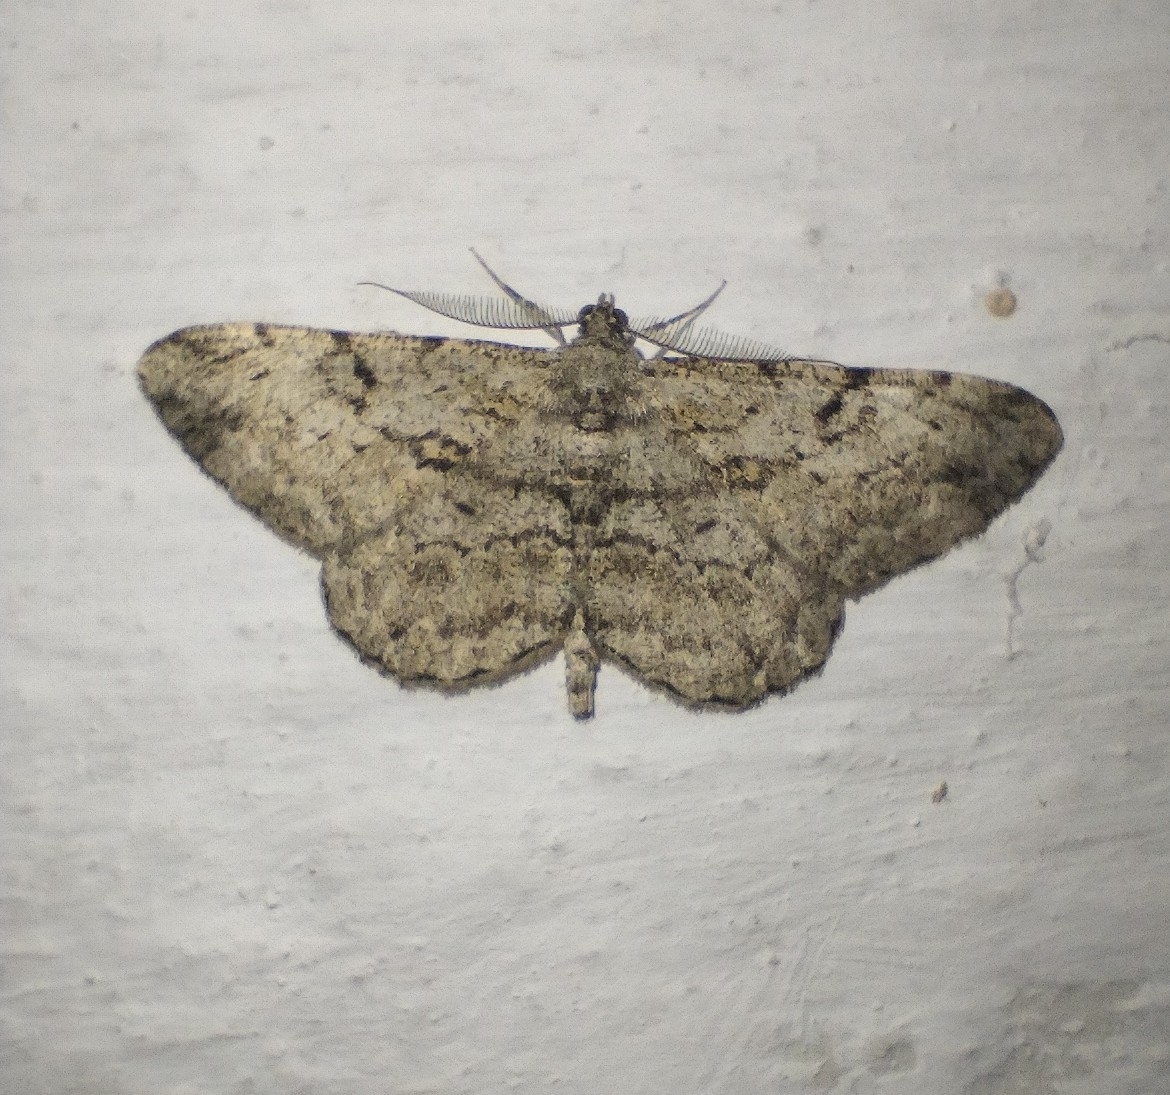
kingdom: Animalia
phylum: Arthropoda
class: Insecta
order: Lepidoptera
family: Geometridae
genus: Peribatodes
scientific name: Peribatodes rhomboidaria
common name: Willow beauty
